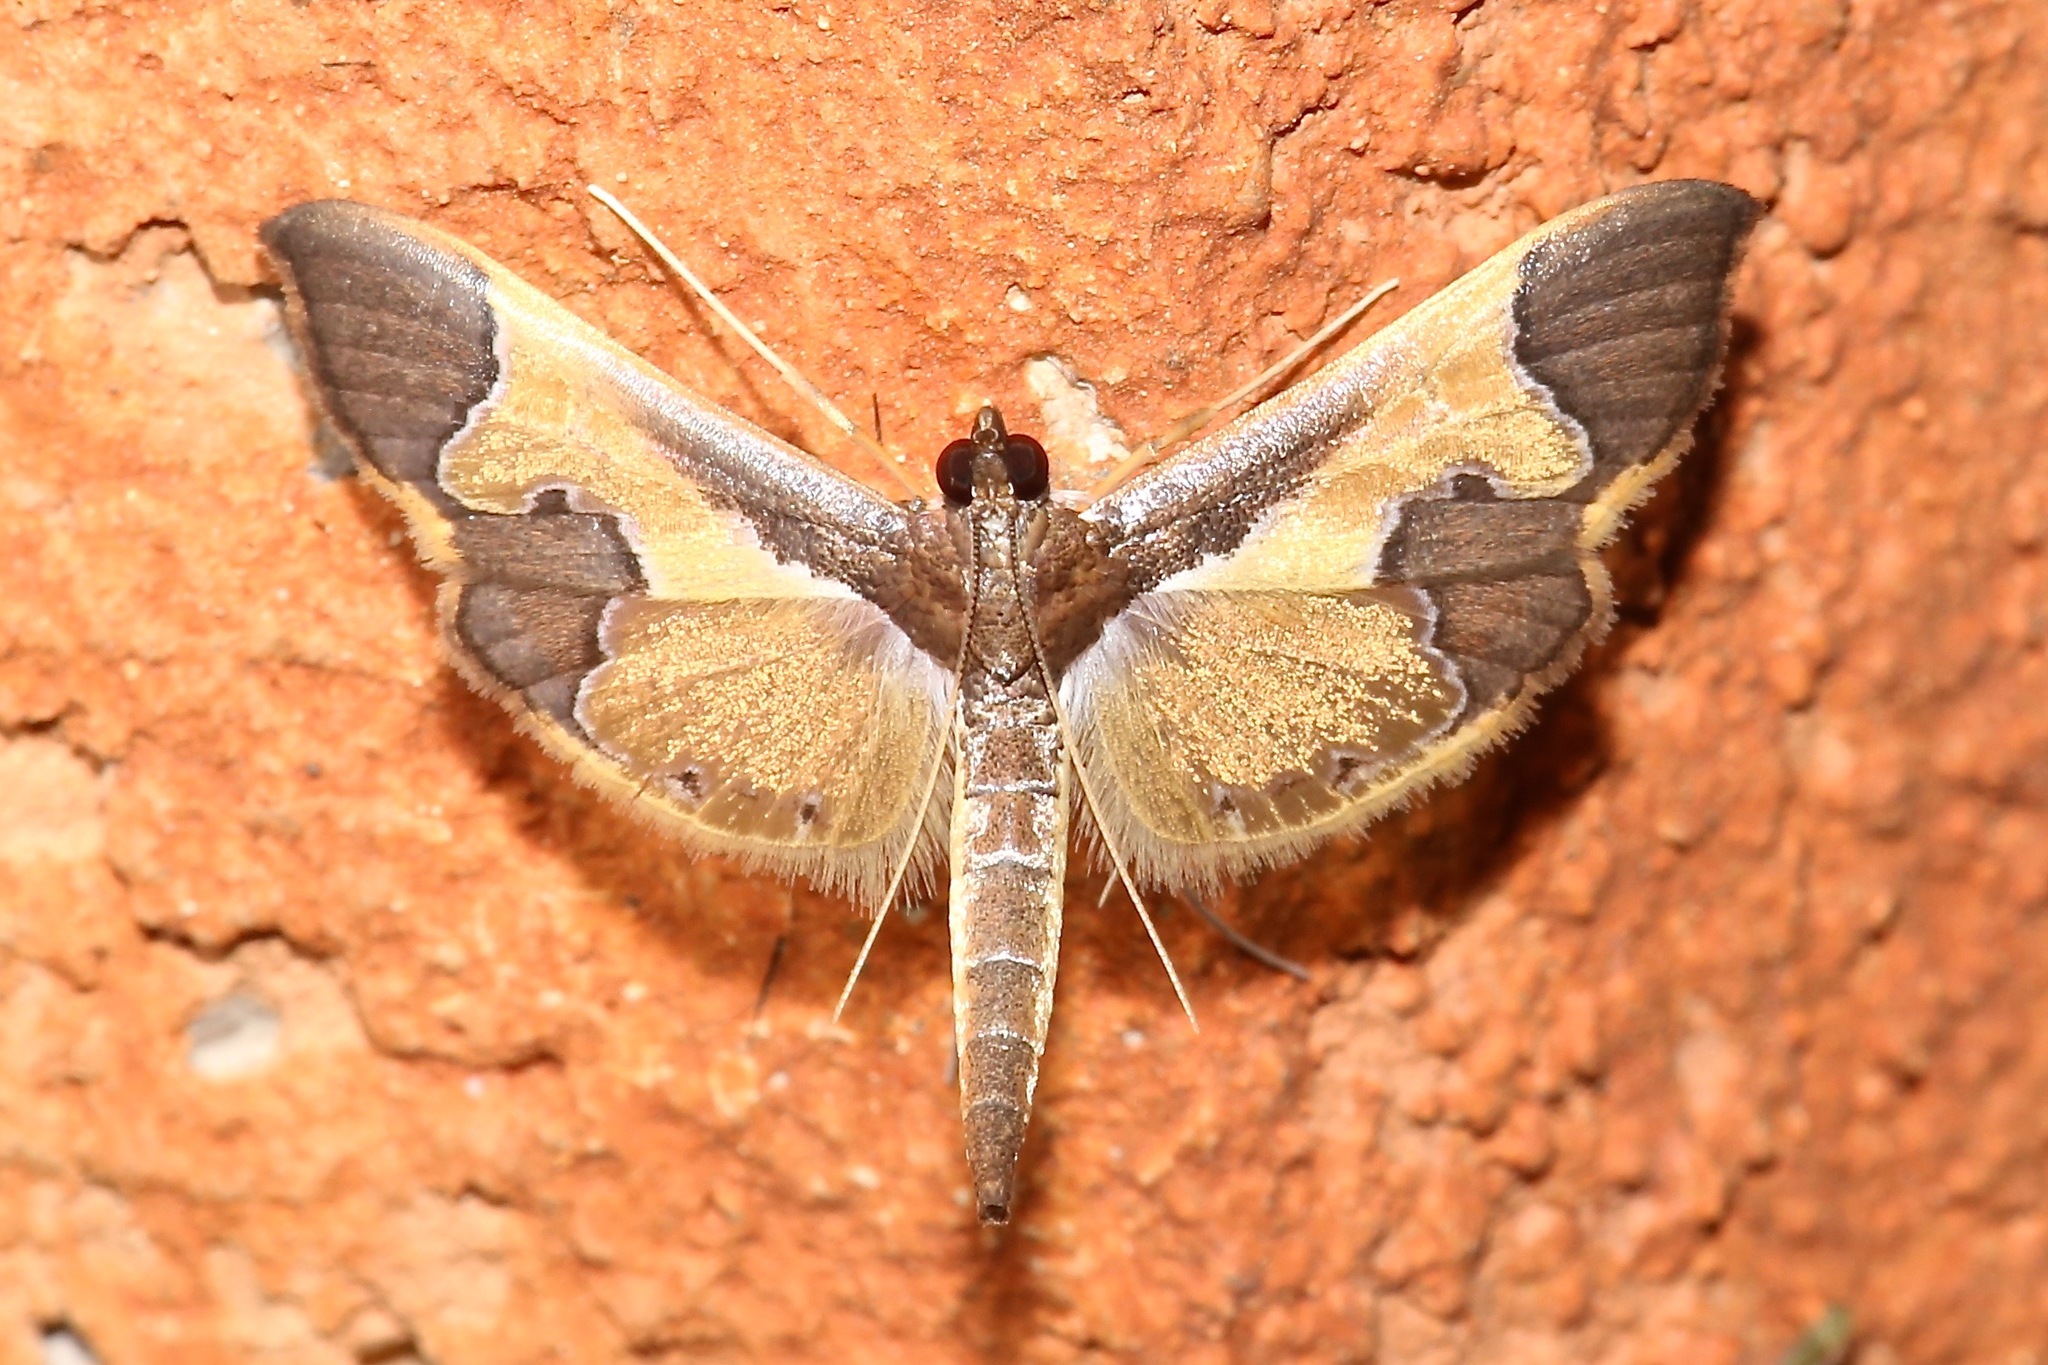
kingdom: Animalia
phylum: Arthropoda
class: Insecta
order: Lepidoptera
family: Crambidae
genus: Syllepis
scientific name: Syllepis marialis
